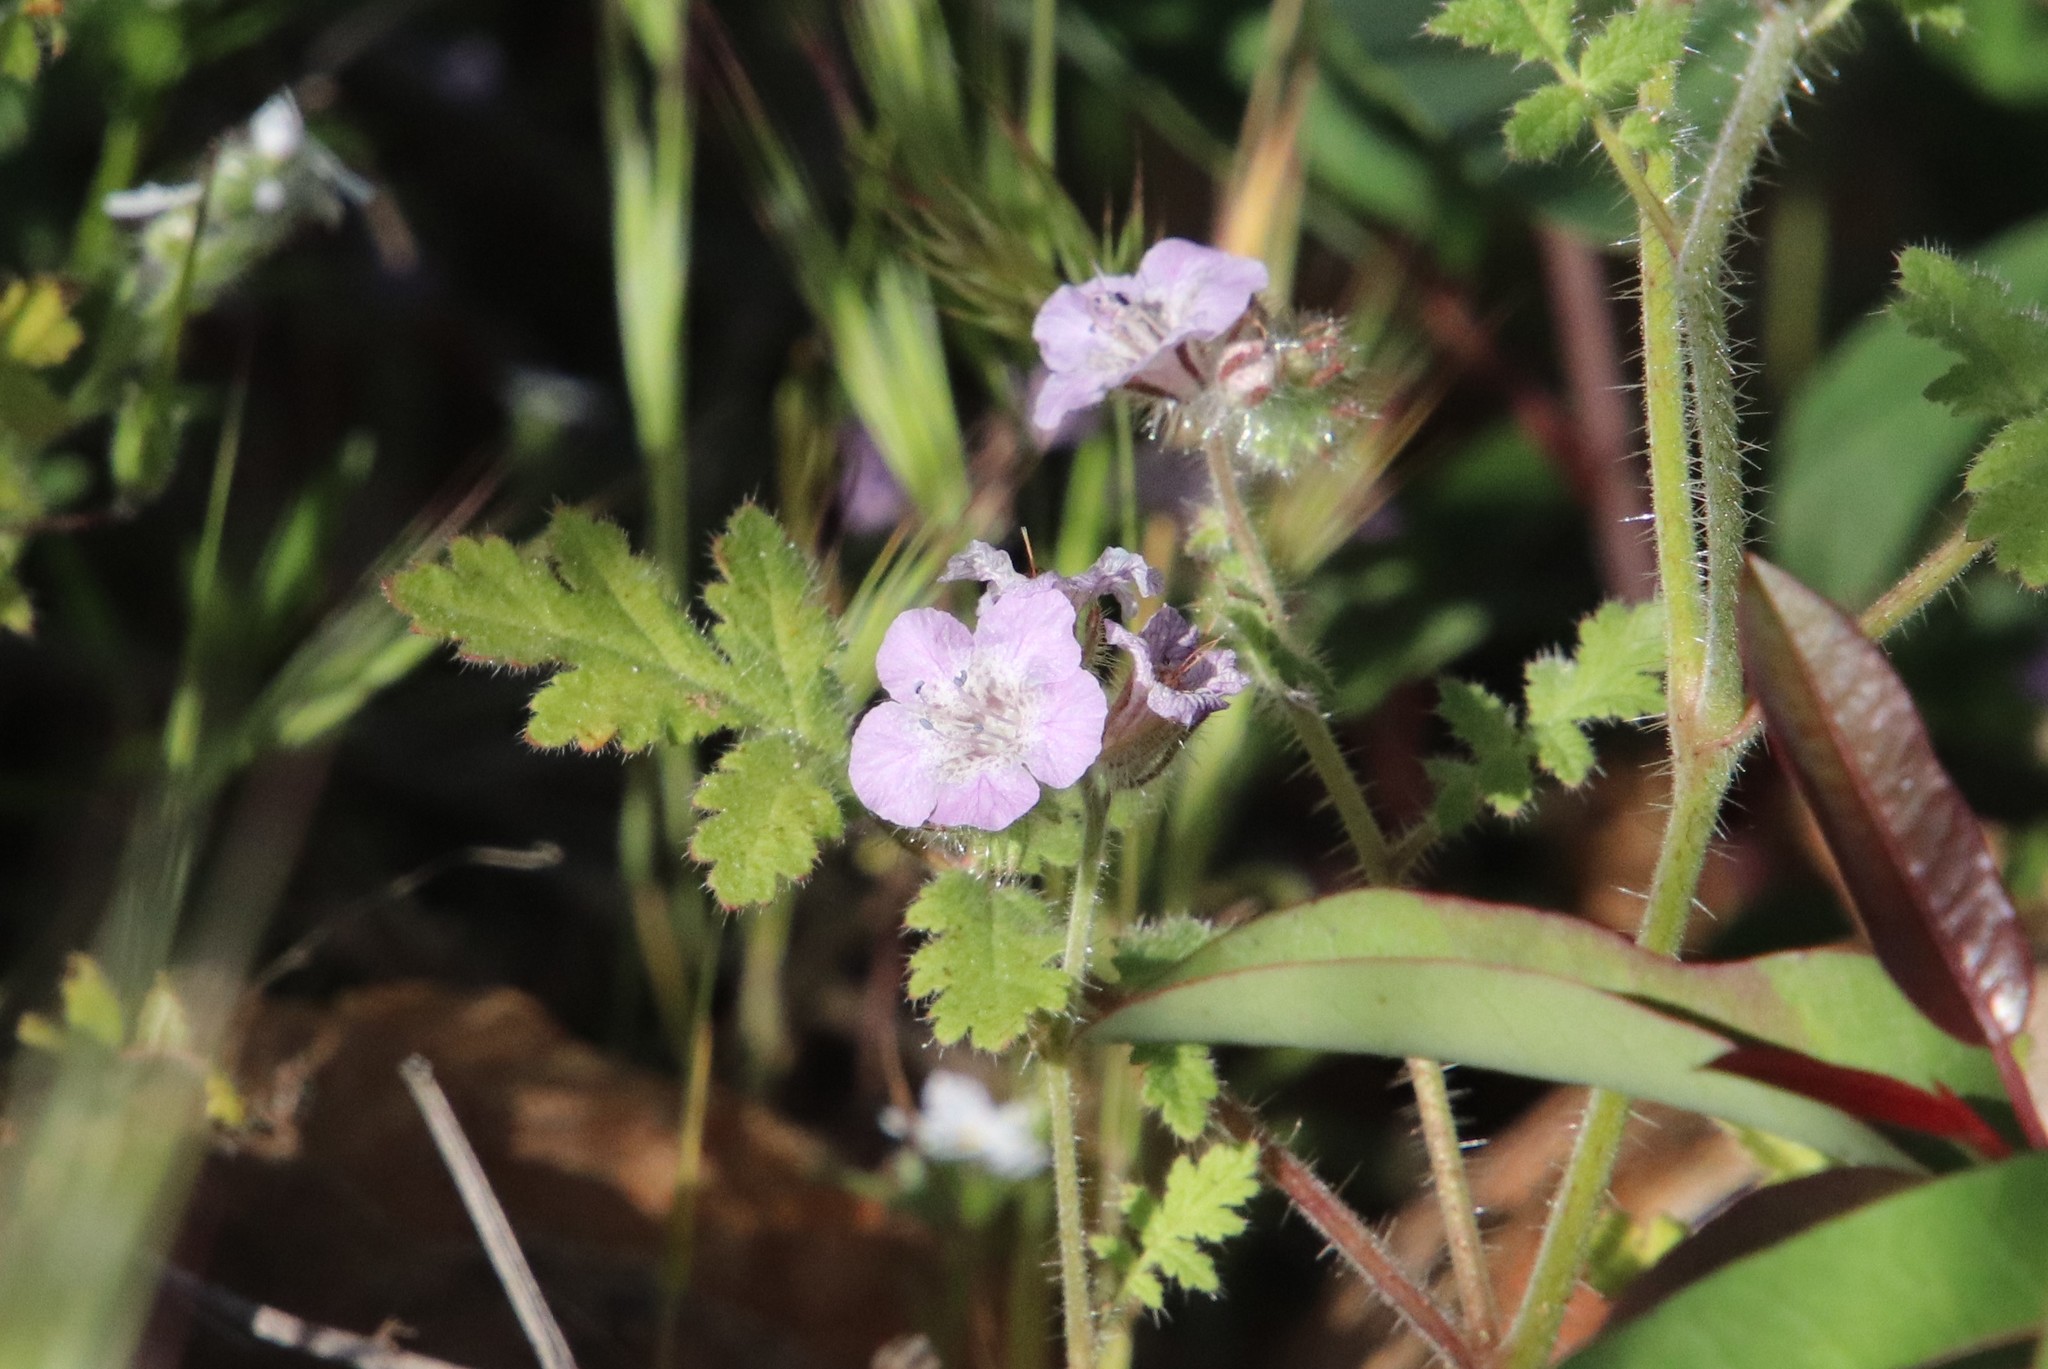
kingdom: Plantae
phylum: Tracheophyta
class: Magnoliopsida
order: Boraginales
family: Hydrophyllaceae
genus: Phacelia
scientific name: Phacelia cicutaria
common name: Caterpillar phacelia
